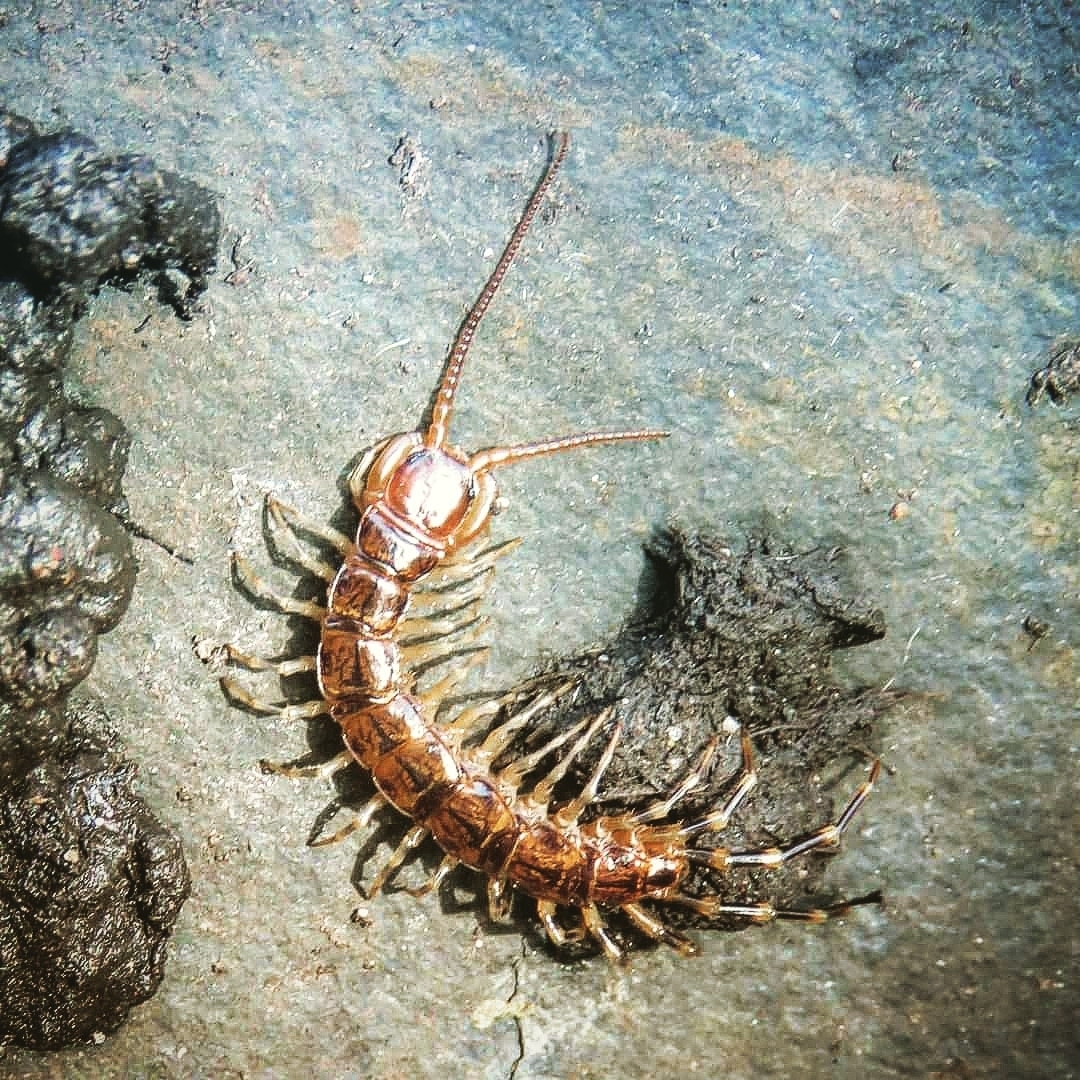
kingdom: Animalia
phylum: Arthropoda
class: Chilopoda
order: Lithobiomorpha
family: Lithobiidae
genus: Lithobius
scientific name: Lithobius variegatus
